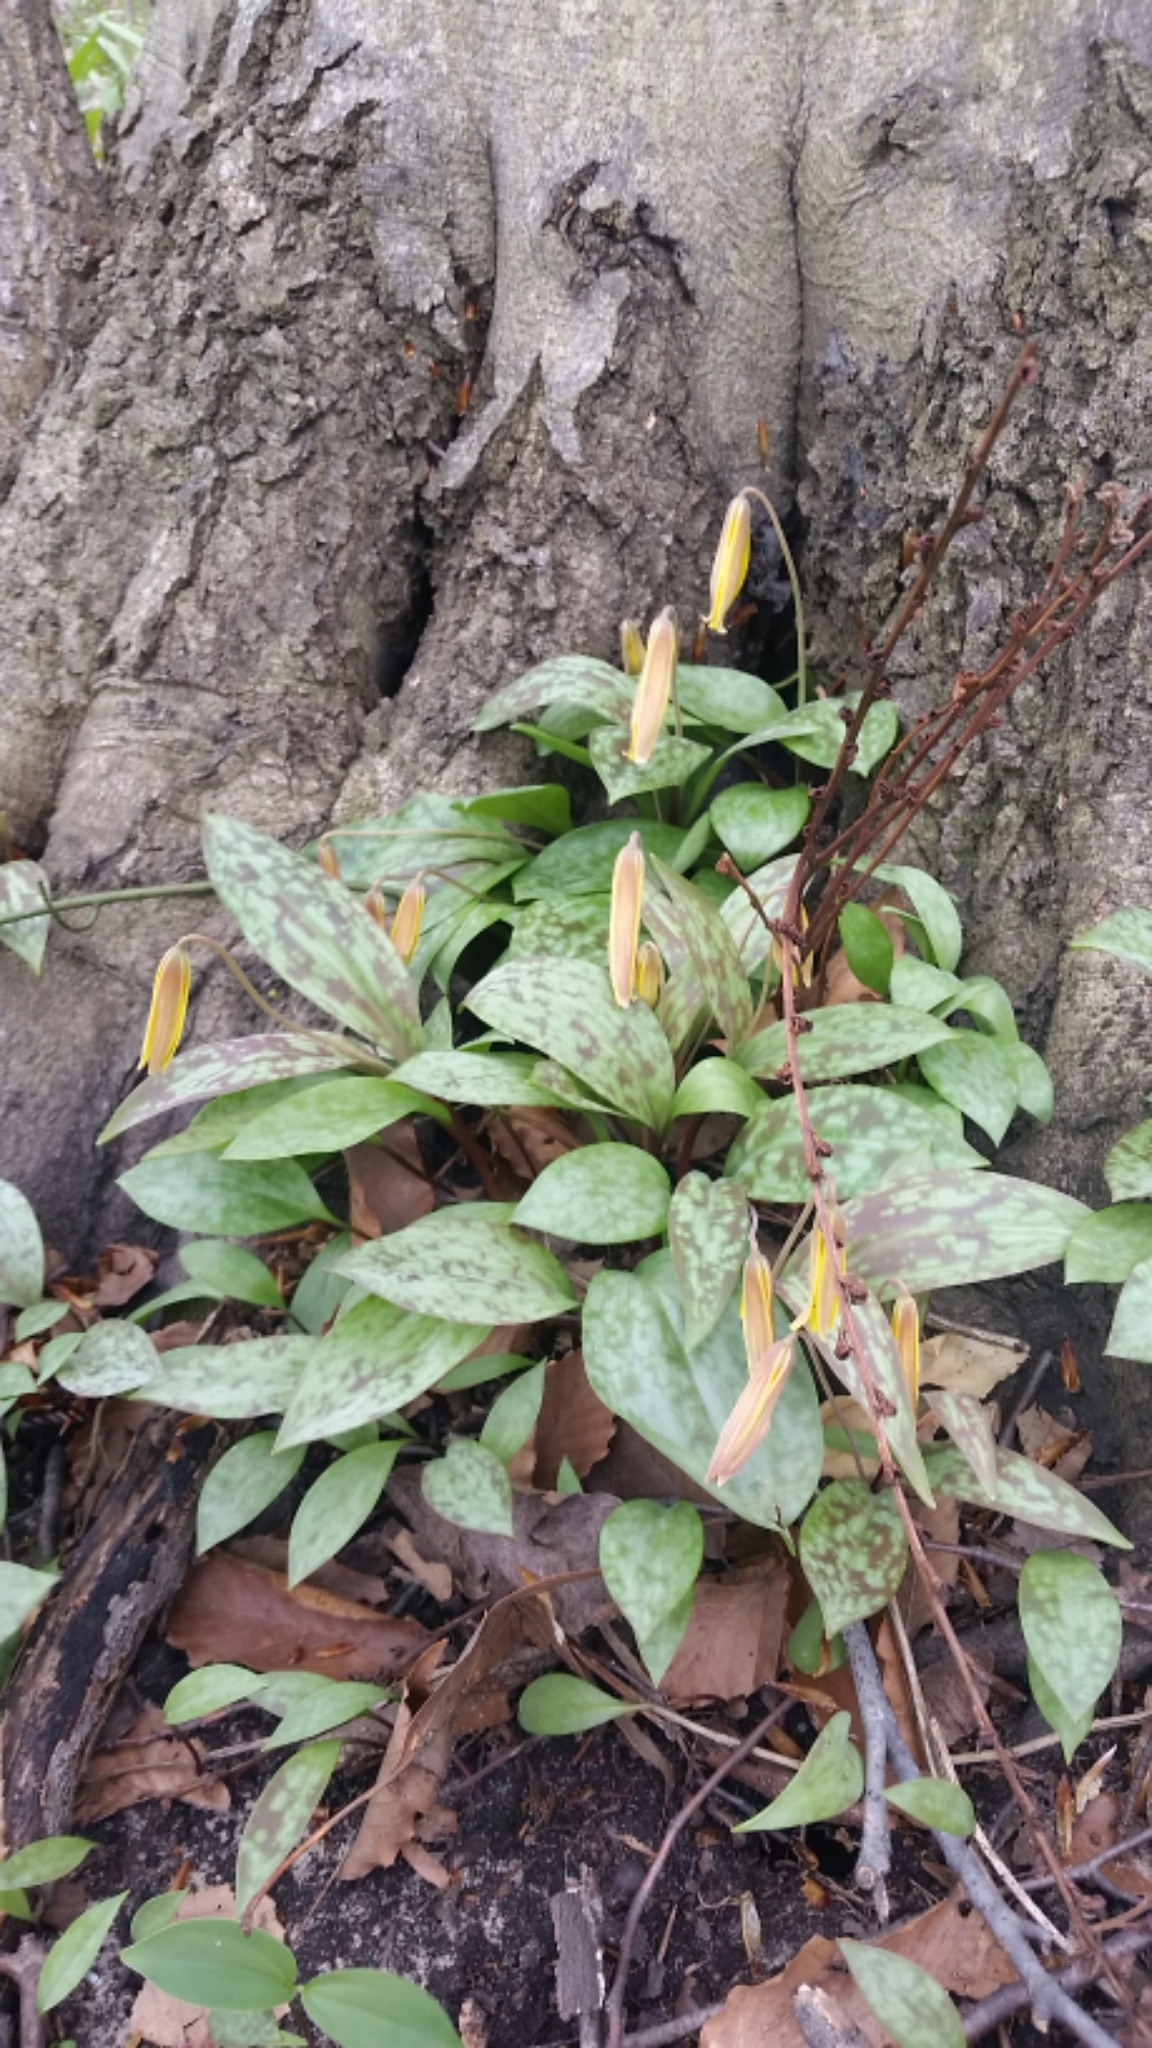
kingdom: Plantae
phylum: Tracheophyta
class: Liliopsida
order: Liliales
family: Liliaceae
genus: Erythronium
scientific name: Erythronium americanum
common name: Yellow adder's-tongue
